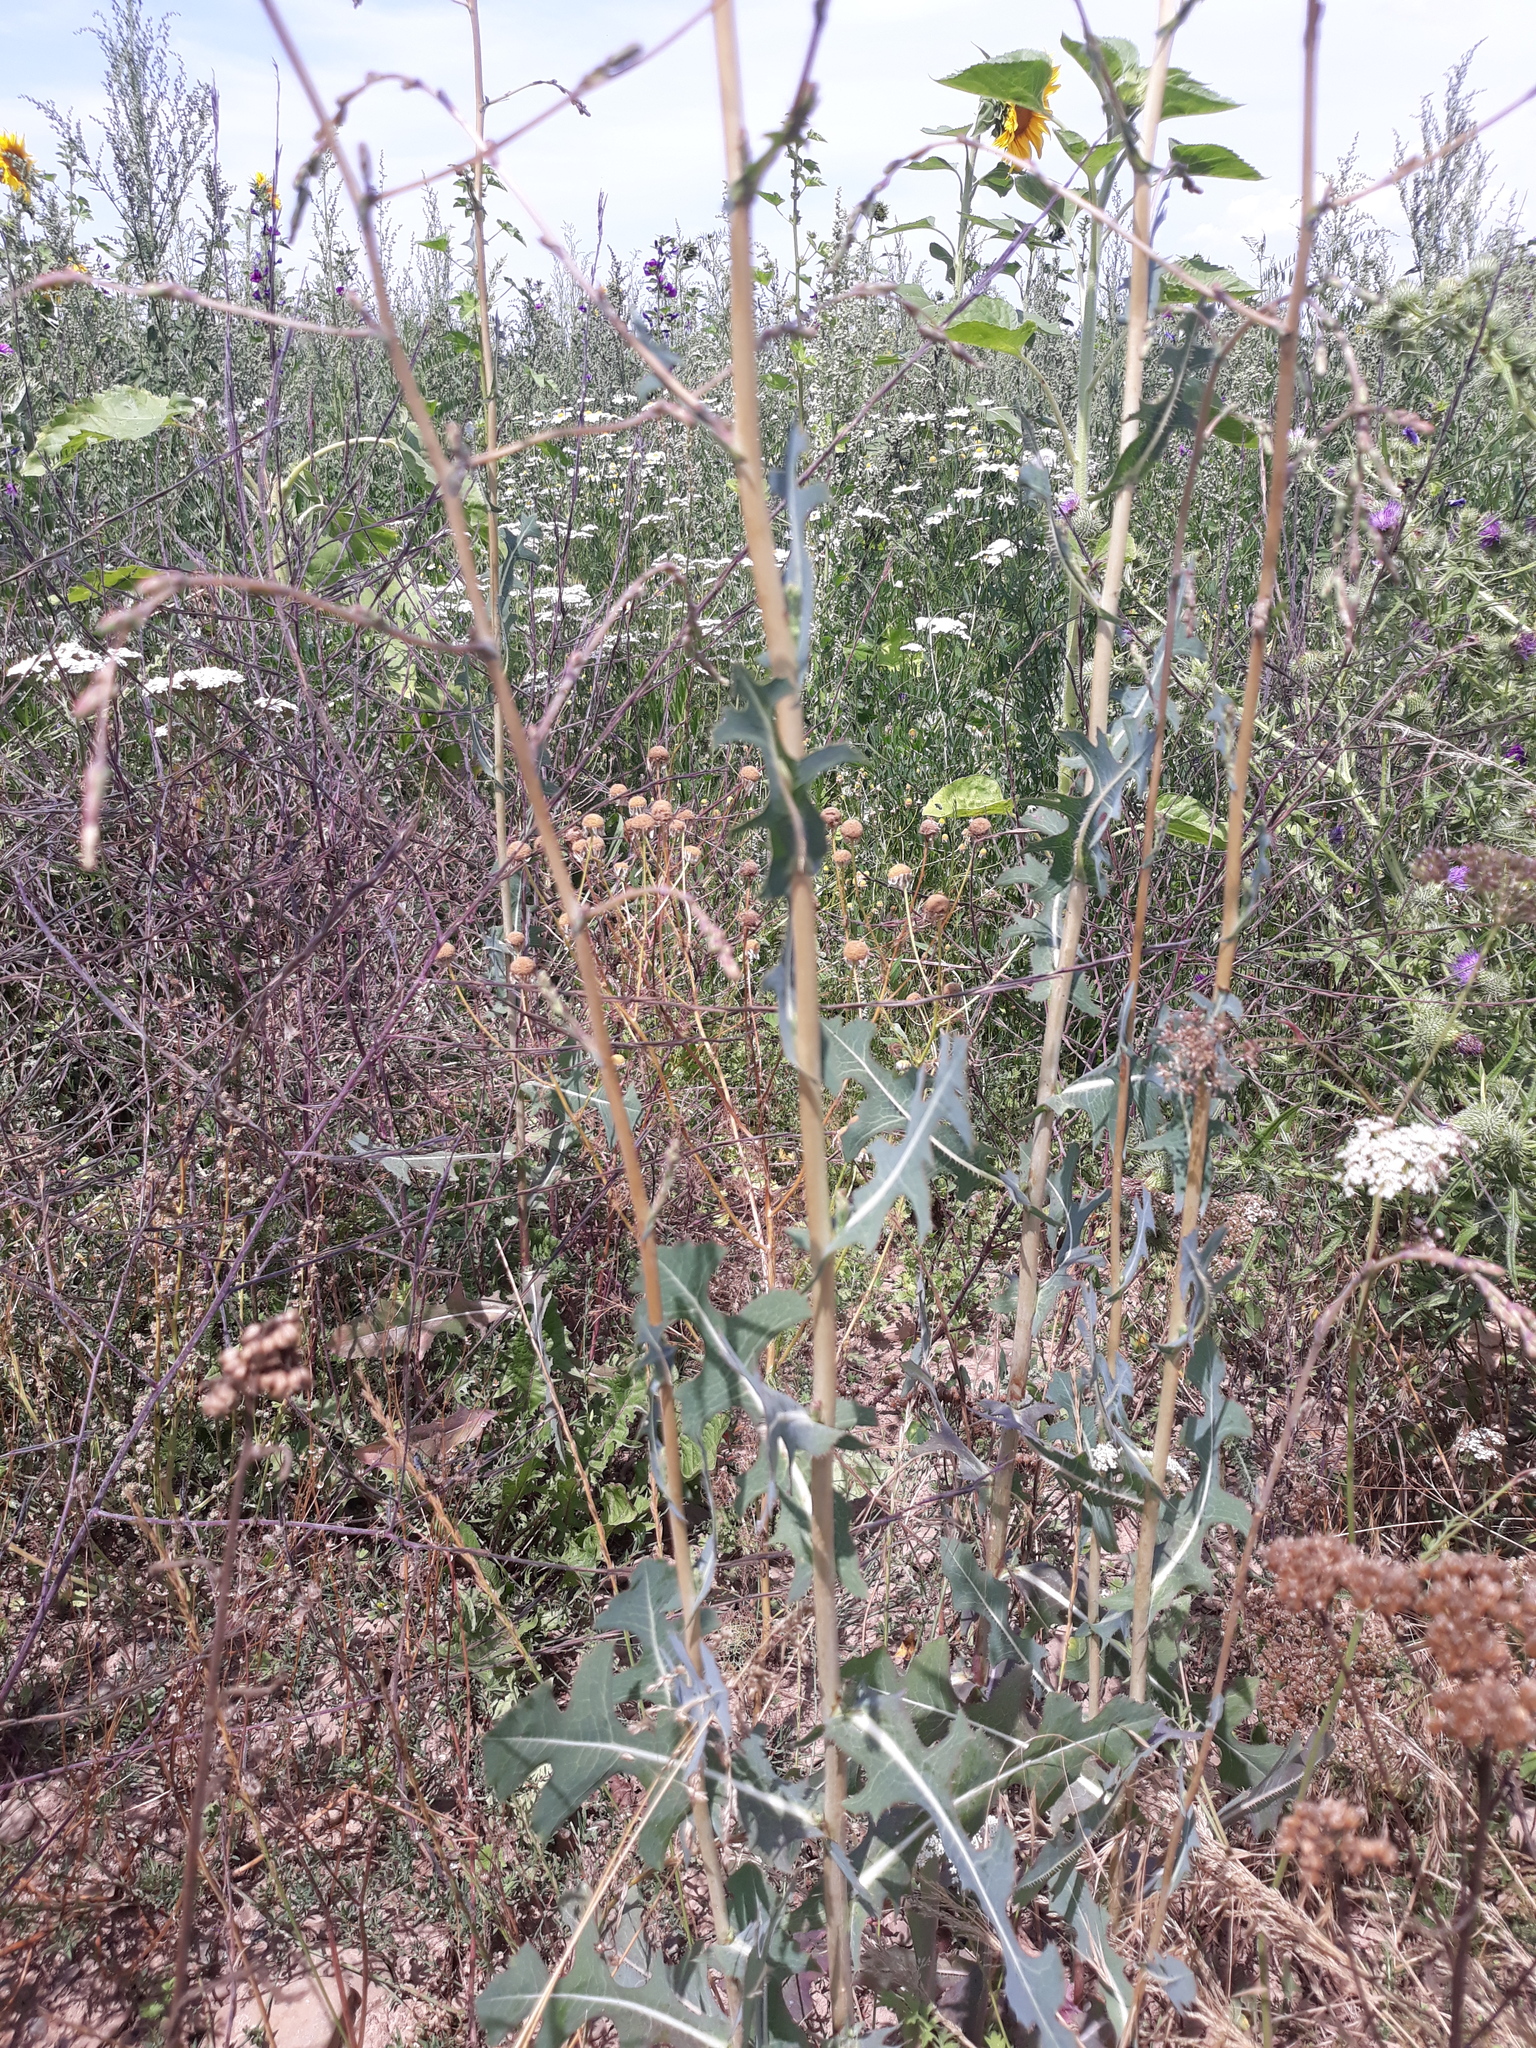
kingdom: Plantae
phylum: Tracheophyta
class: Magnoliopsida
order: Asterales
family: Asteraceae
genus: Lactuca
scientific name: Lactuca serriola
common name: Prickly lettuce
